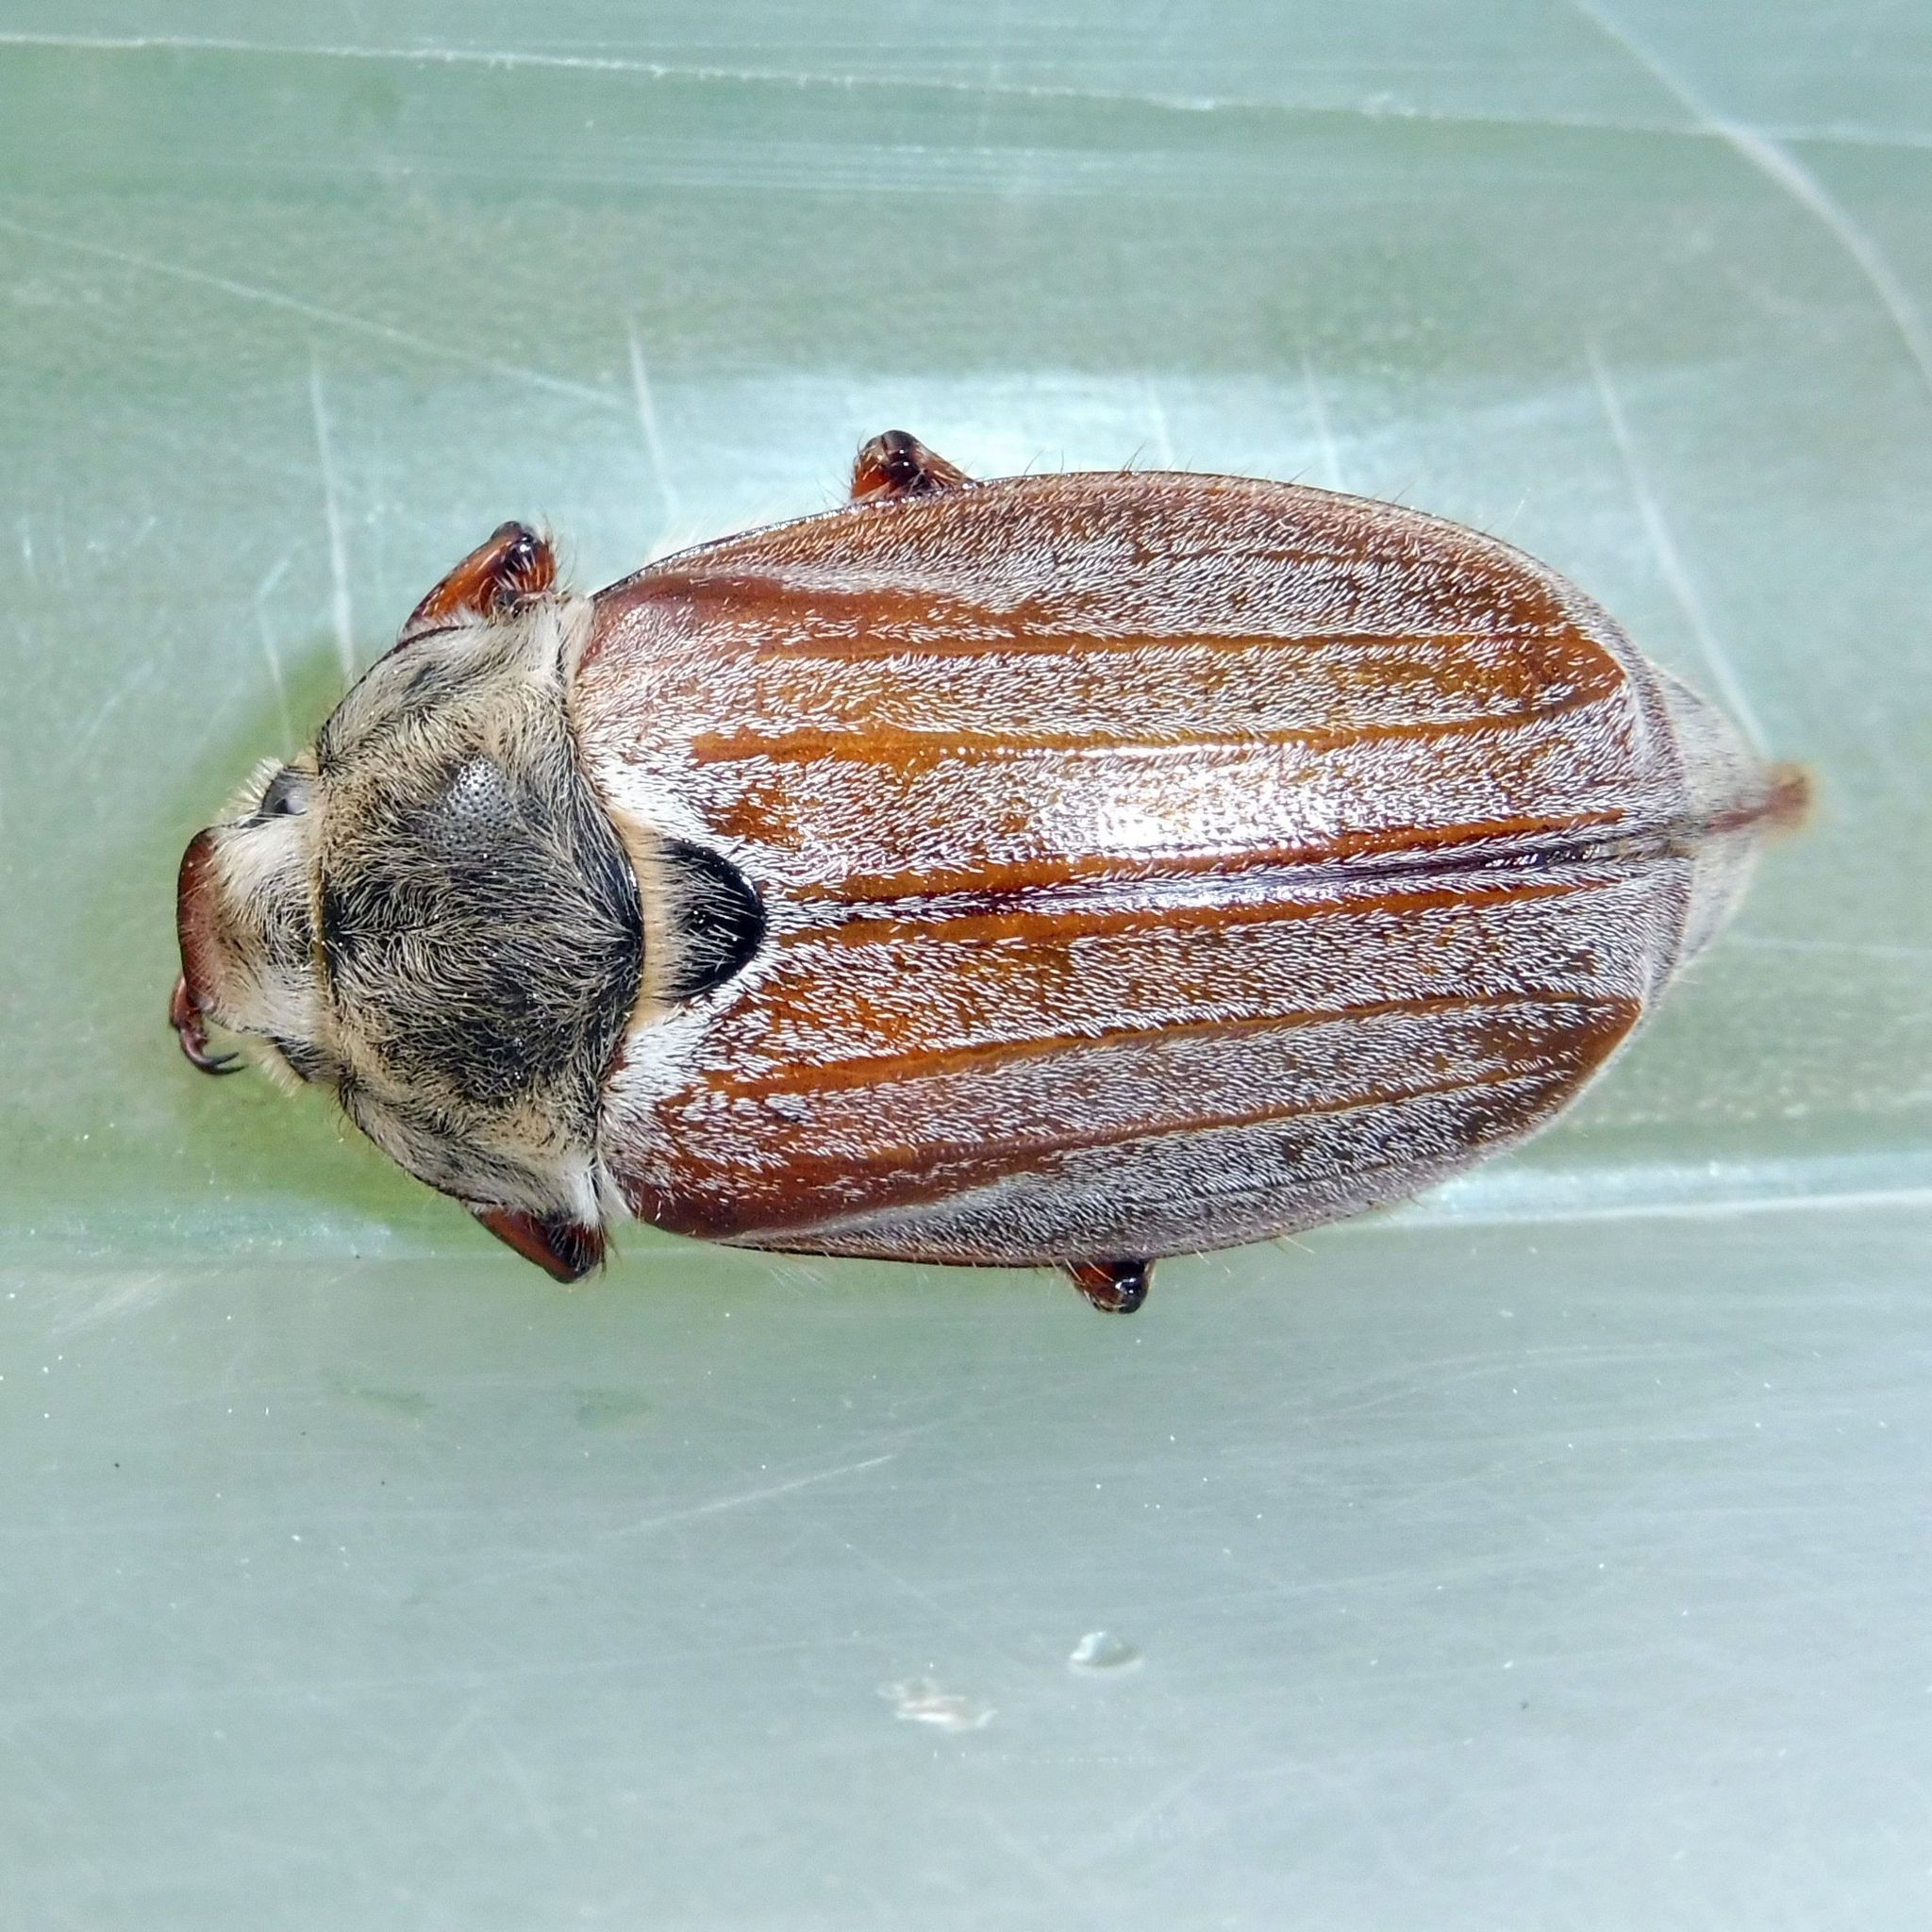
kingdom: Animalia
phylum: Arthropoda
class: Insecta
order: Coleoptera
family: Scarabaeidae
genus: Melolontha
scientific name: Melolontha melolontha
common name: Cockchafer maybeetle
